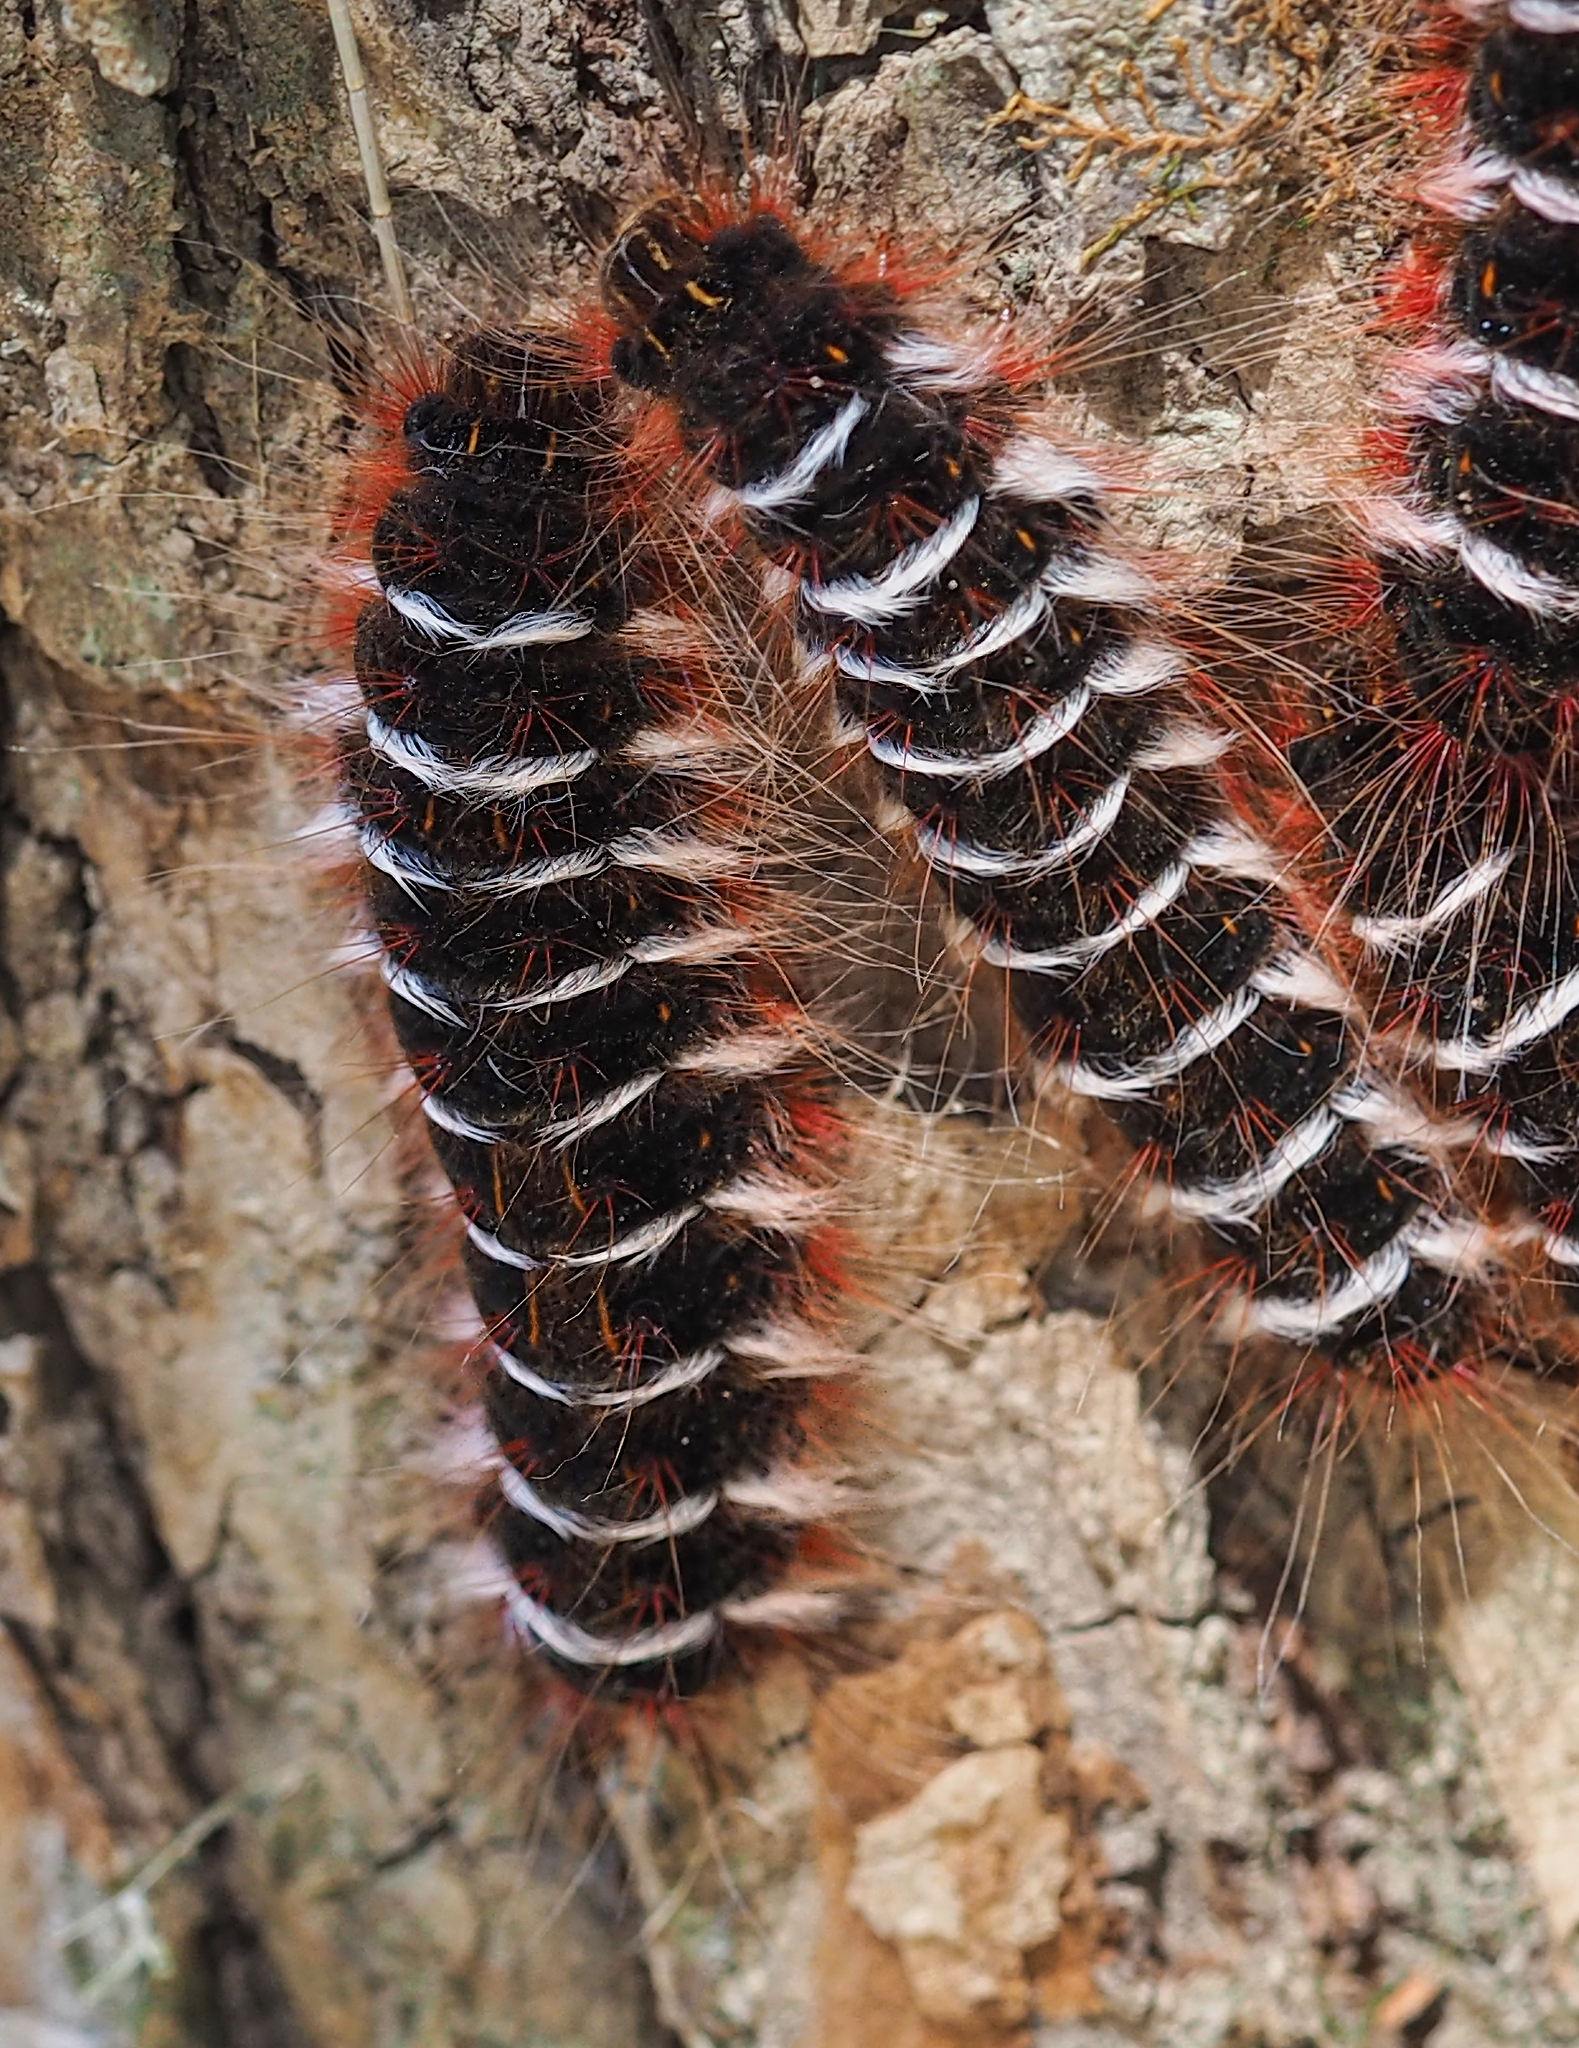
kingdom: Animalia
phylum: Arthropoda
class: Insecta
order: Lepidoptera
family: Lasiocampidae
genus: Euglyphis
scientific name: Euglyphis nocens
